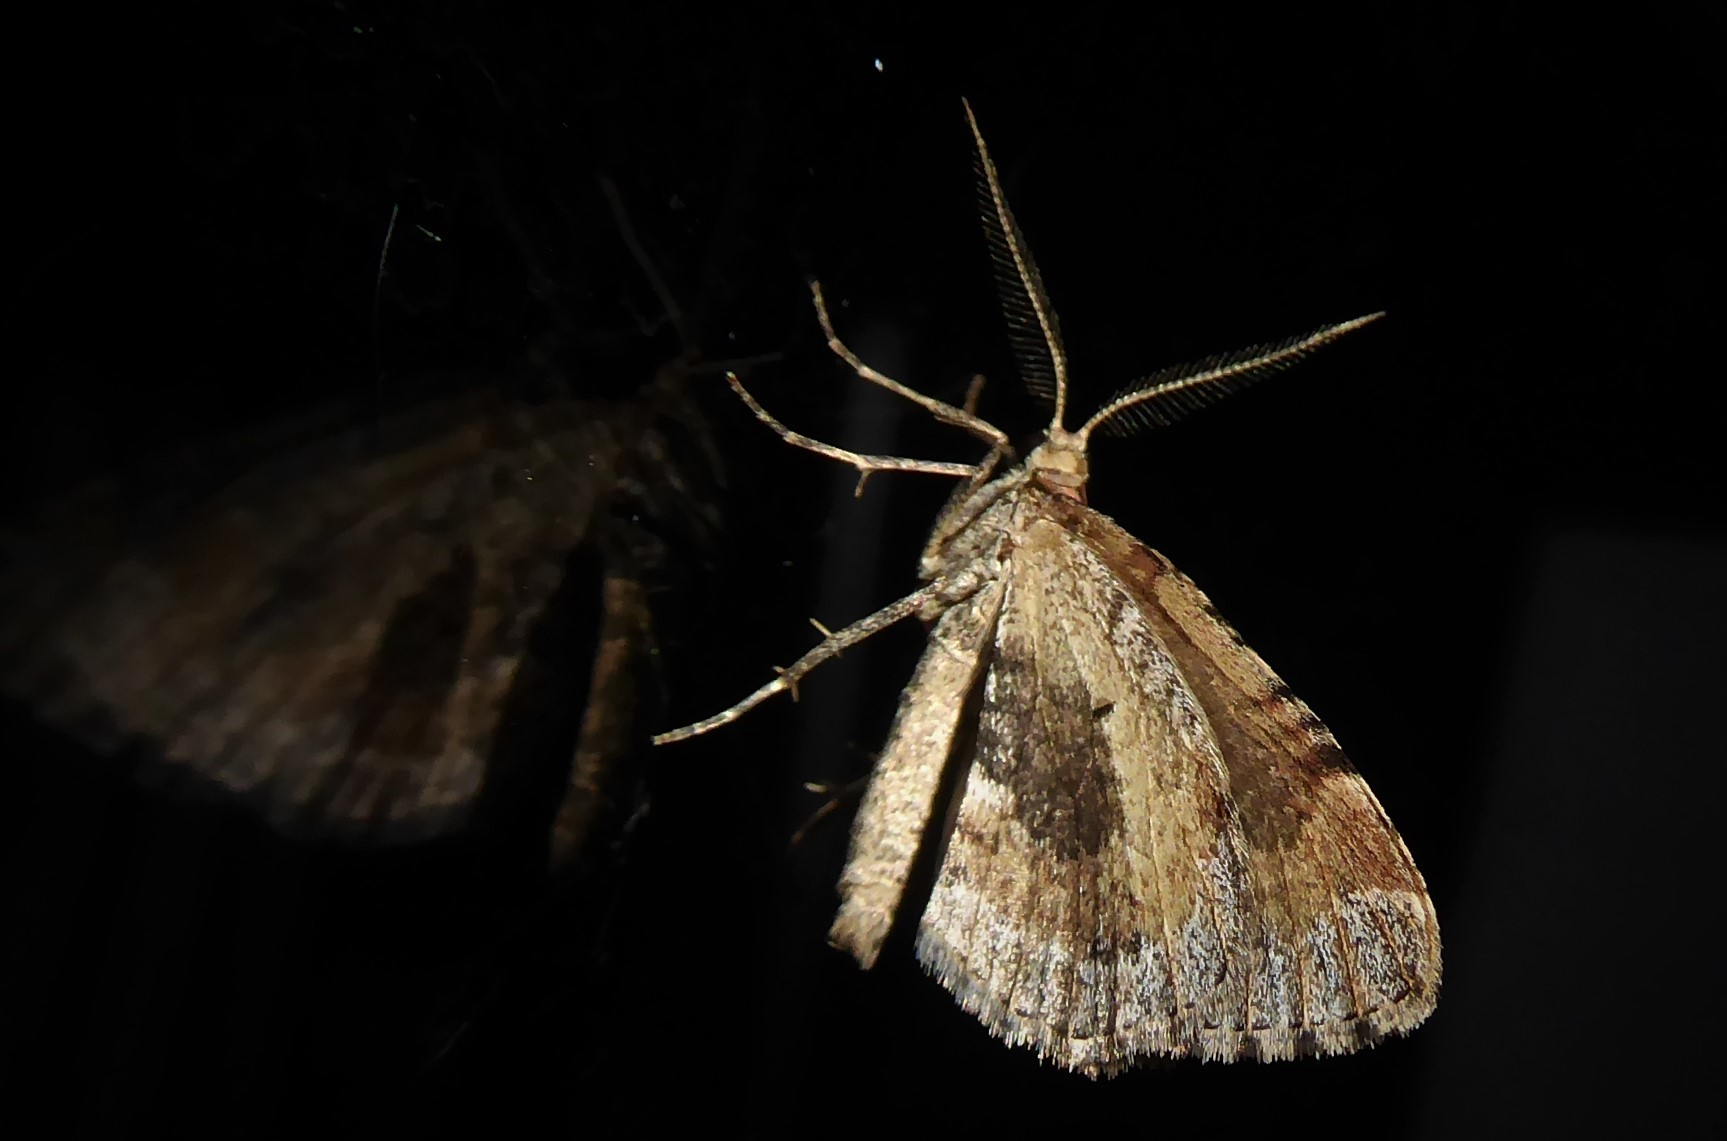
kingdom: Animalia
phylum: Arthropoda
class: Insecta
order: Lepidoptera
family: Geometridae
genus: Asaphodes
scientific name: Asaphodes aegrota
